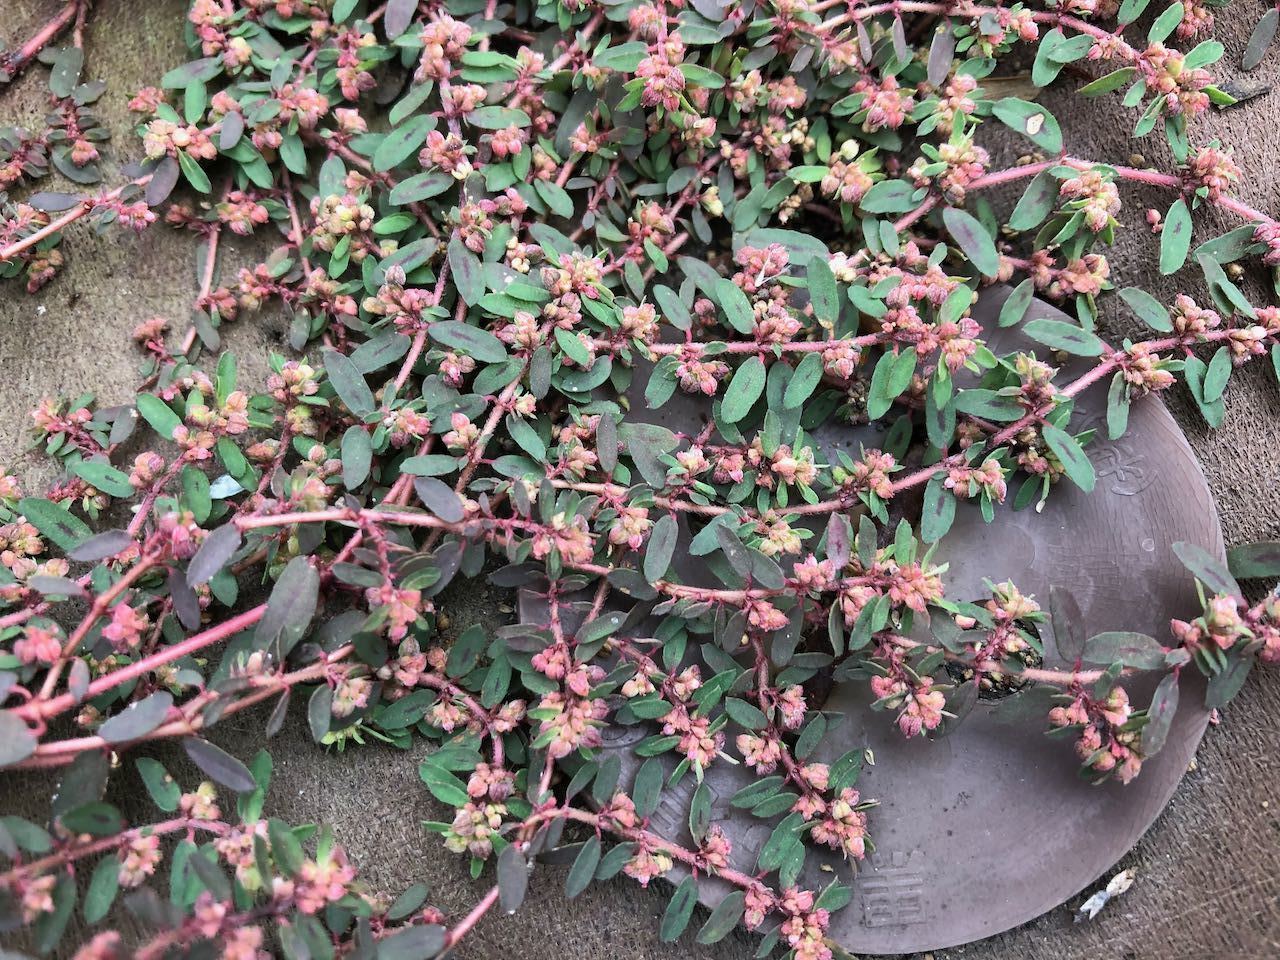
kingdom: Plantae
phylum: Tracheophyta
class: Magnoliopsida
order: Malpighiales
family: Euphorbiaceae
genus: Euphorbia
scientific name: Euphorbia maculata
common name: Spotted spurge
